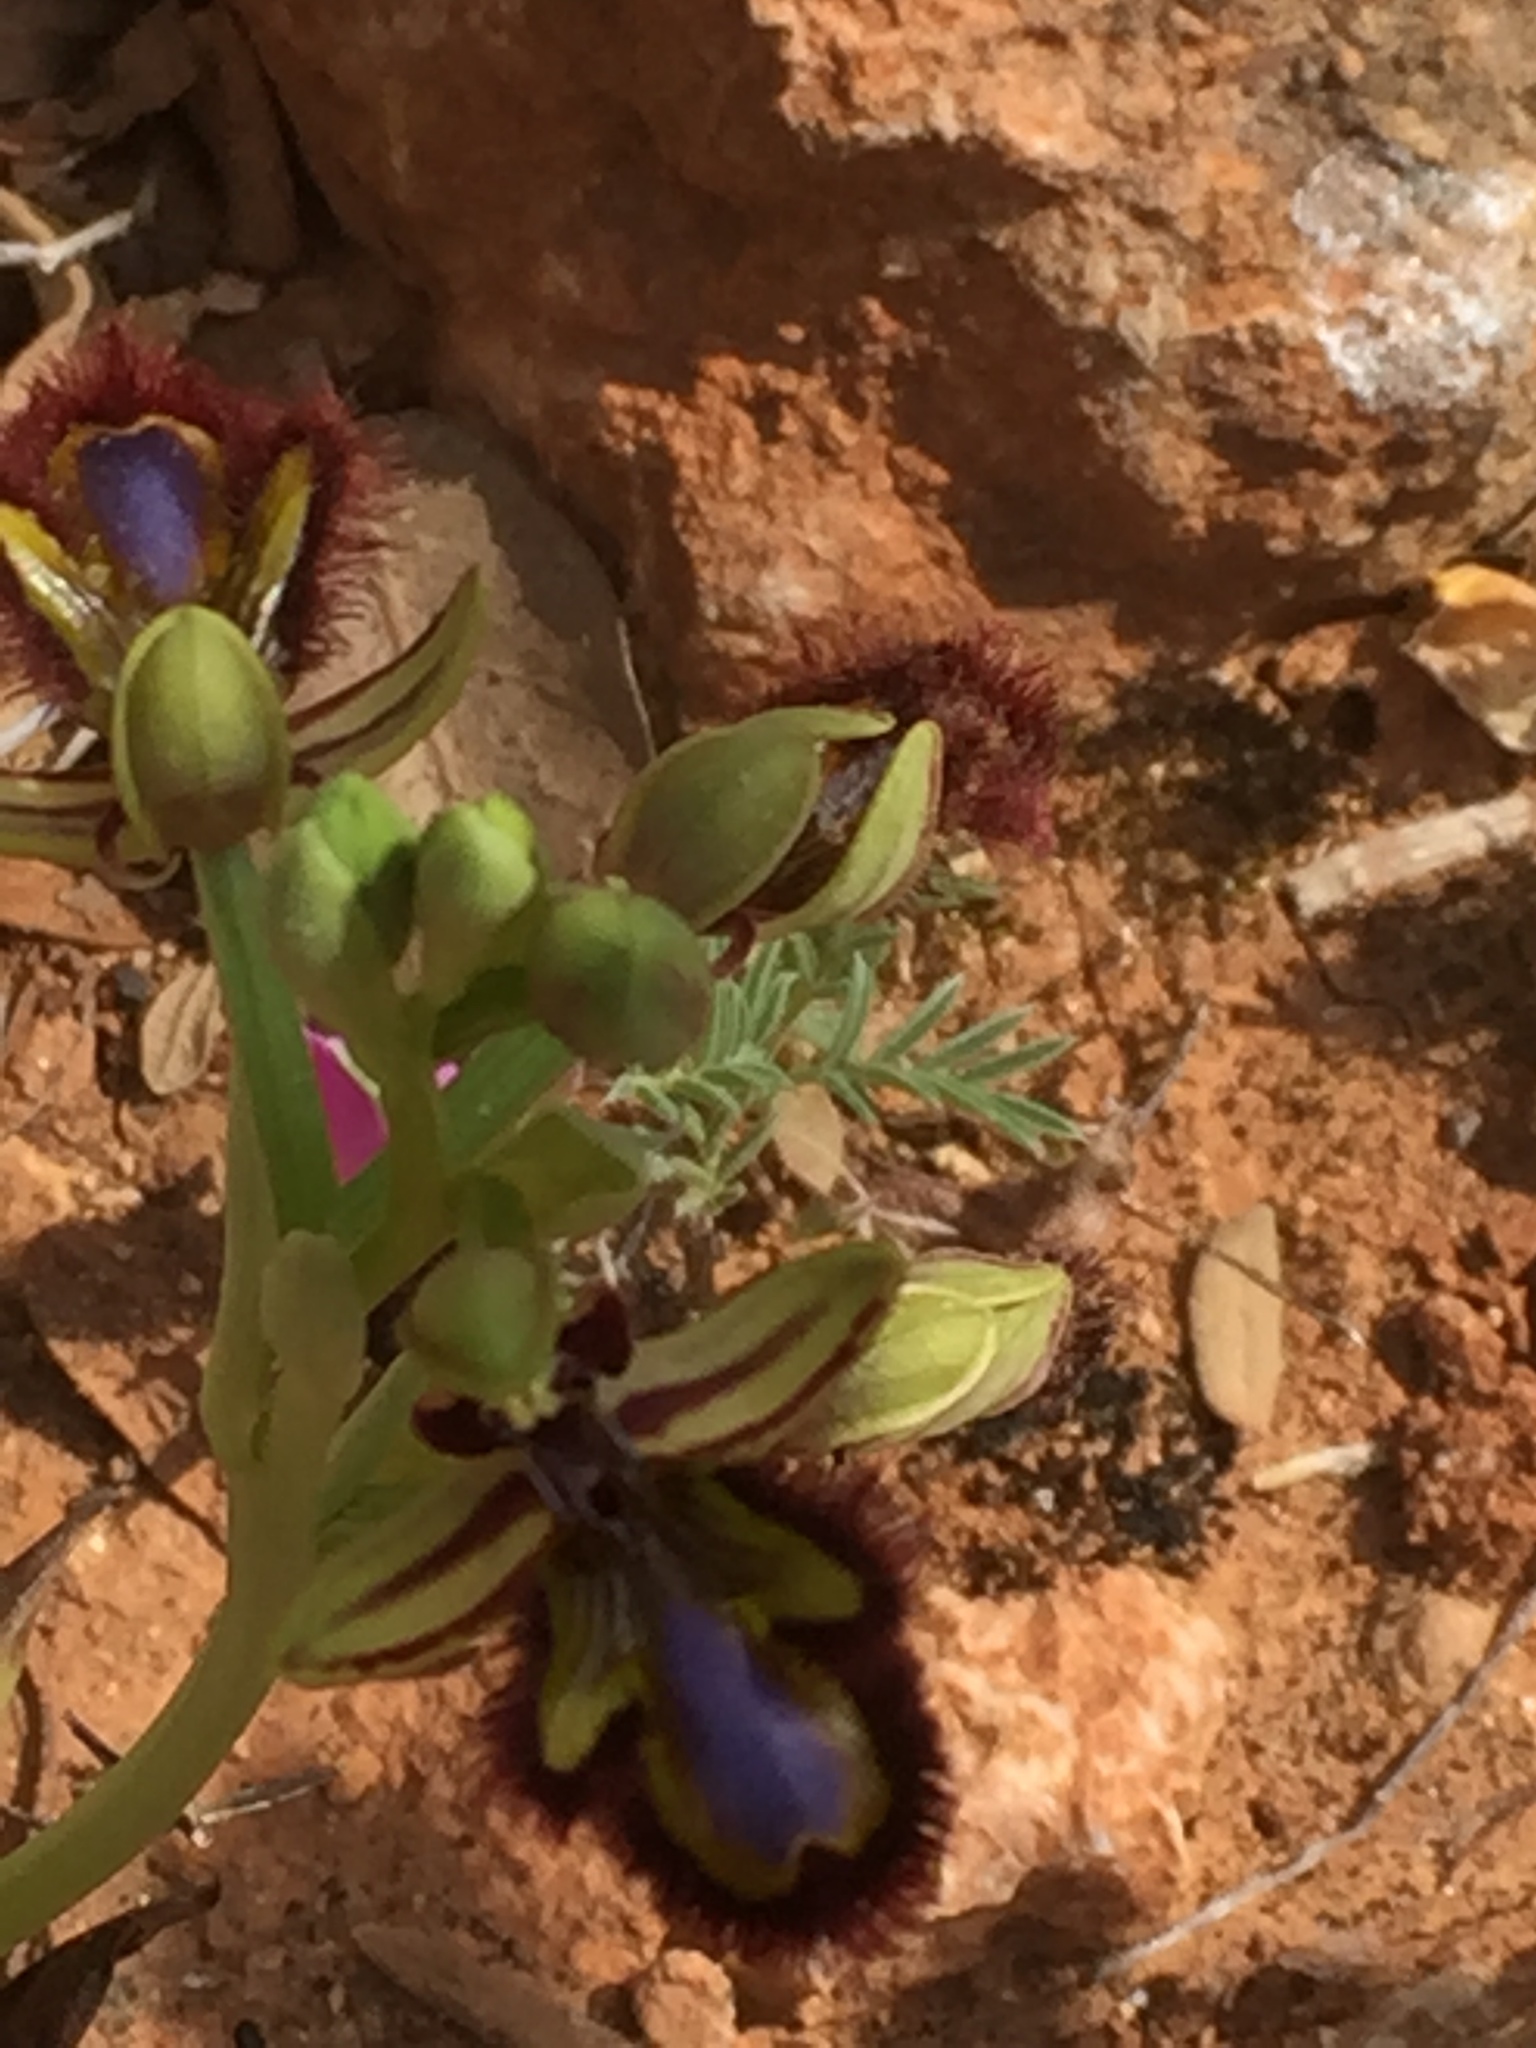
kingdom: Plantae
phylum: Tracheophyta
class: Liliopsida
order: Asparagales
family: Orchidaceae
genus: Ophrys
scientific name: Ophrys speculum
